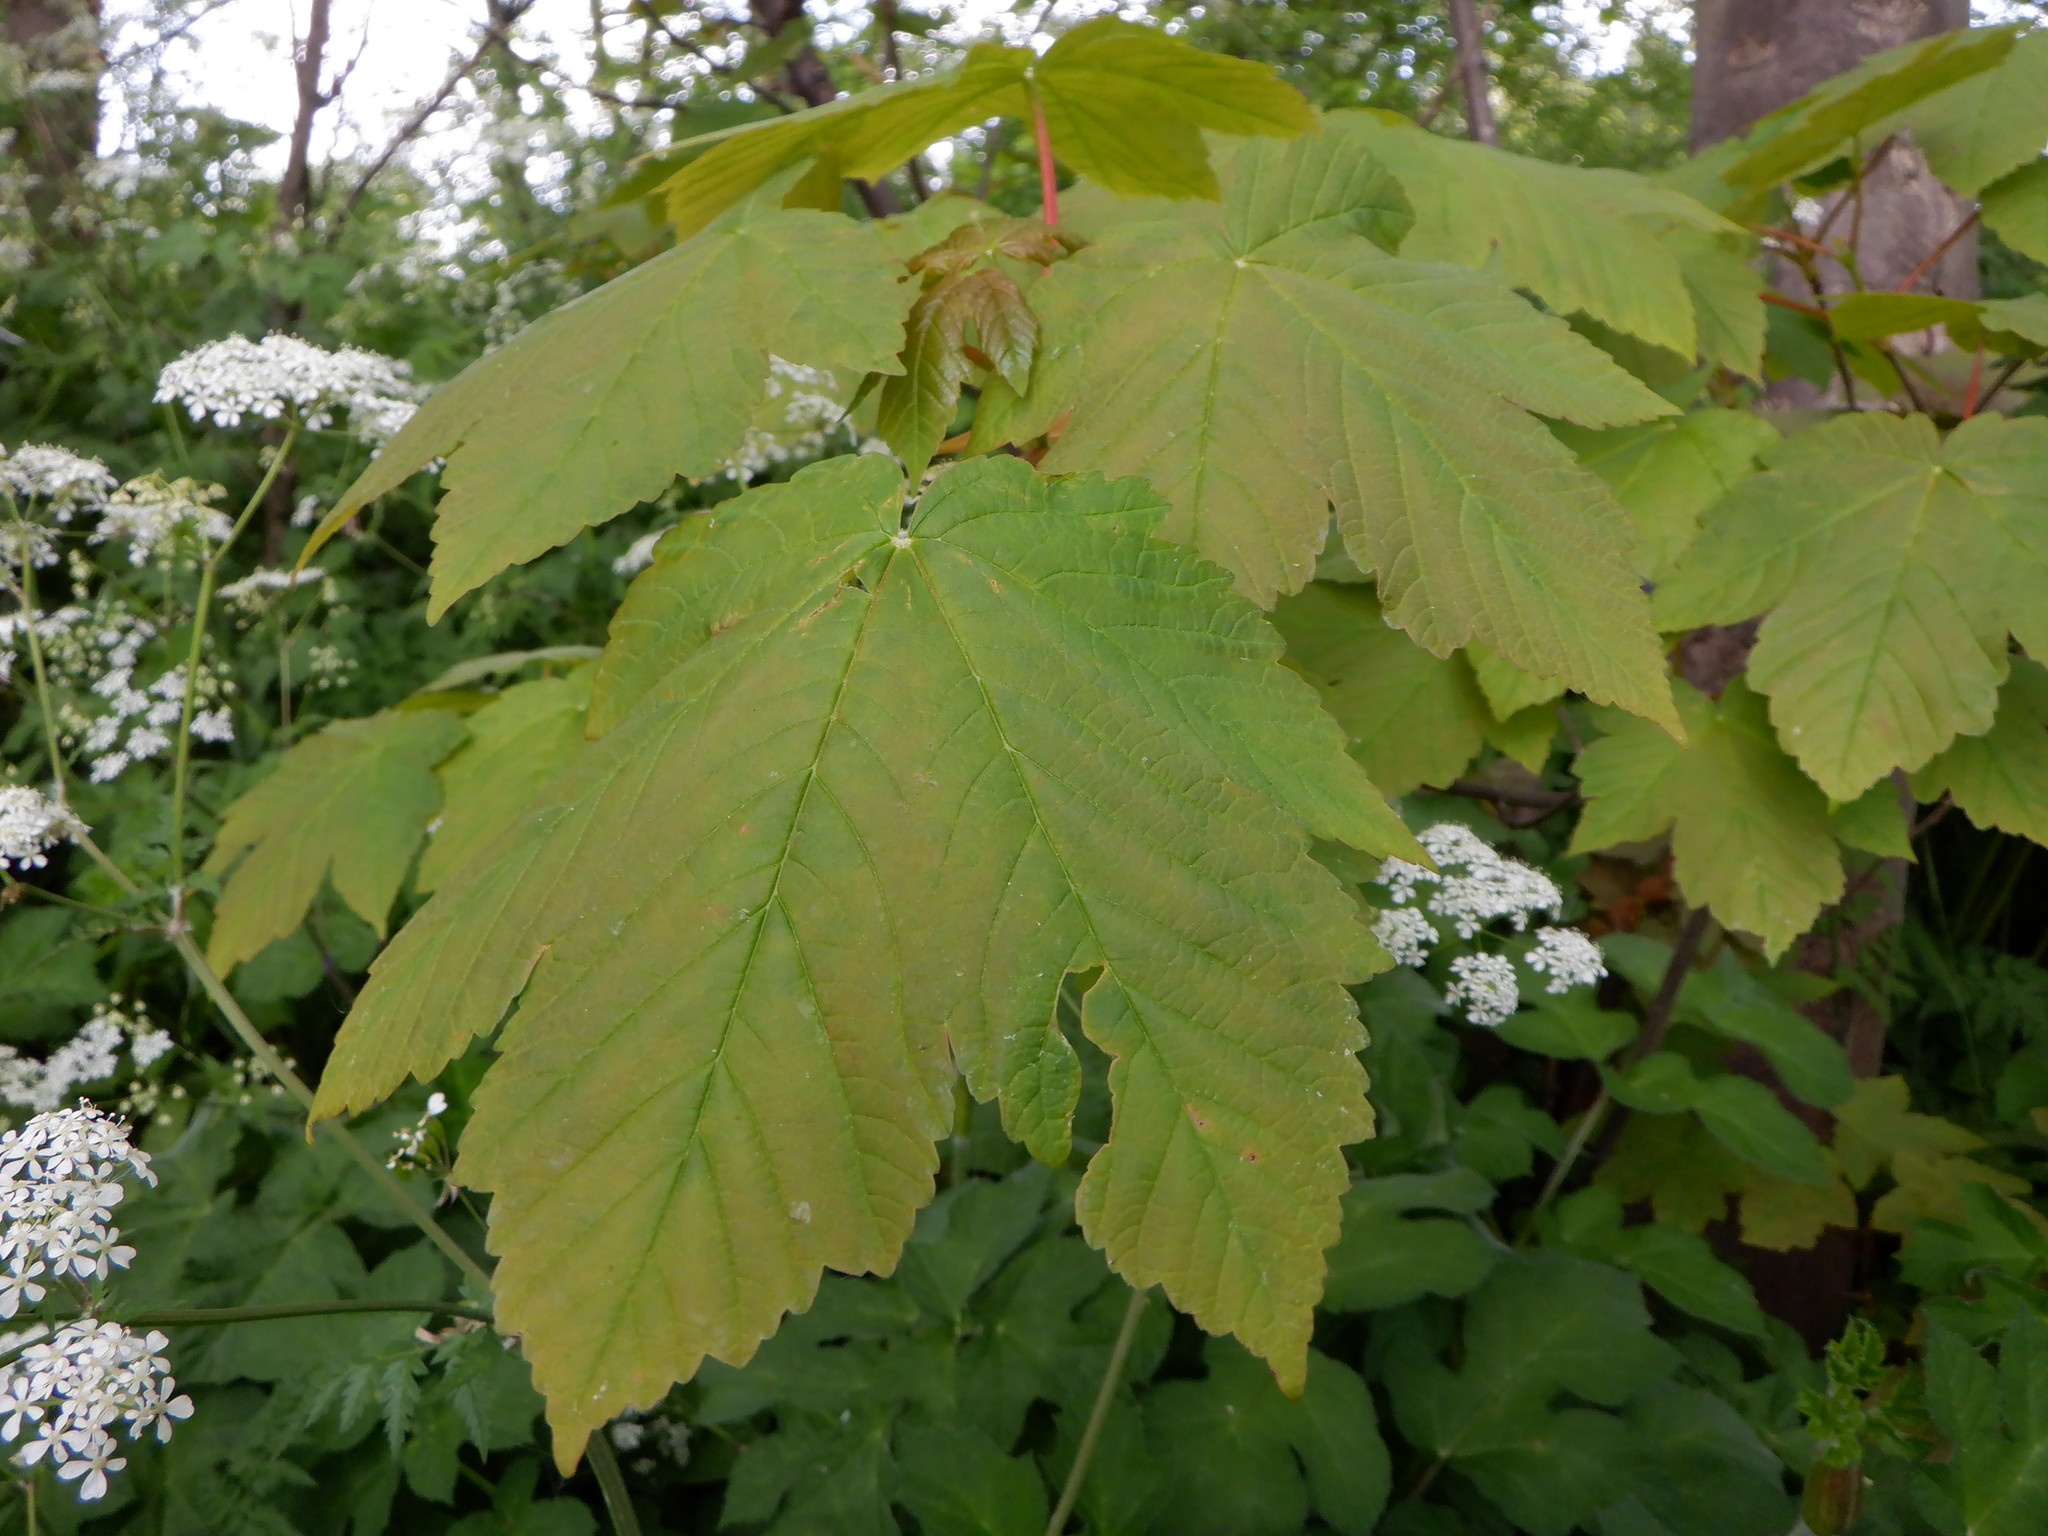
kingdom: Plantae
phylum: Tracheophyta
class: Magnoliopsida
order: Sapindales
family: Sapindaceae
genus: Acer
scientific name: Acer pseudoplatanus
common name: Sycamore
